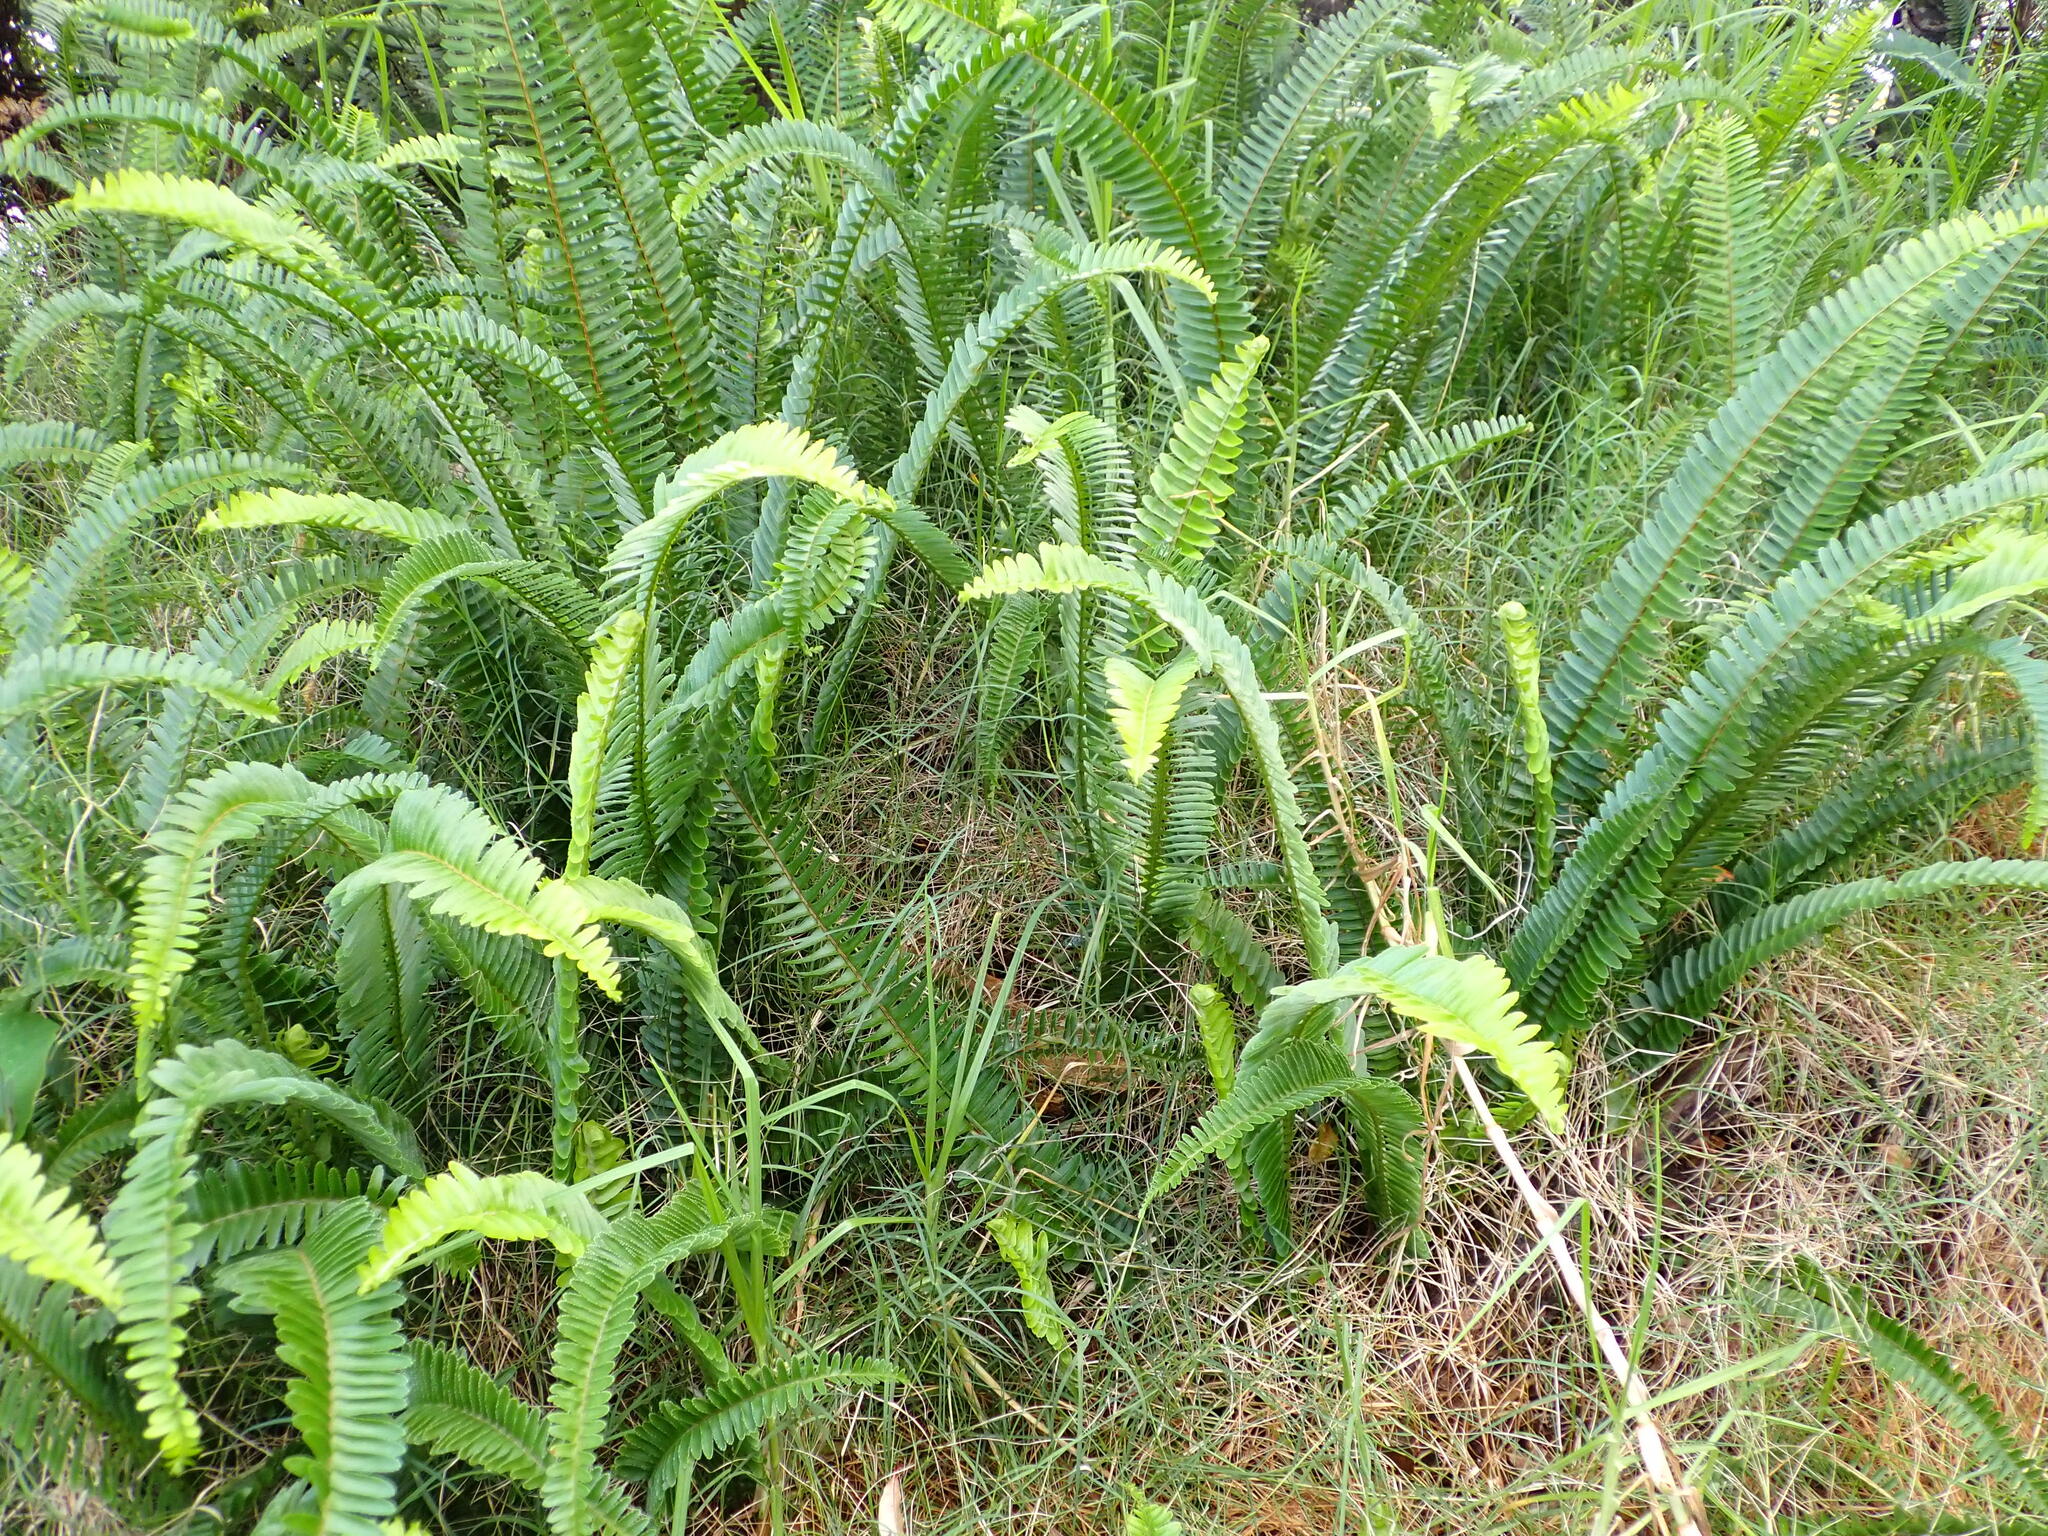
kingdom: Plantae
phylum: Tracheophyta
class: Polypodiopsida
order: Polypodiales
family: Nephrolepidaceae
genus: Nephrolepis
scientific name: Nephrolepis cordifolia
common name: Narrow swordfern
